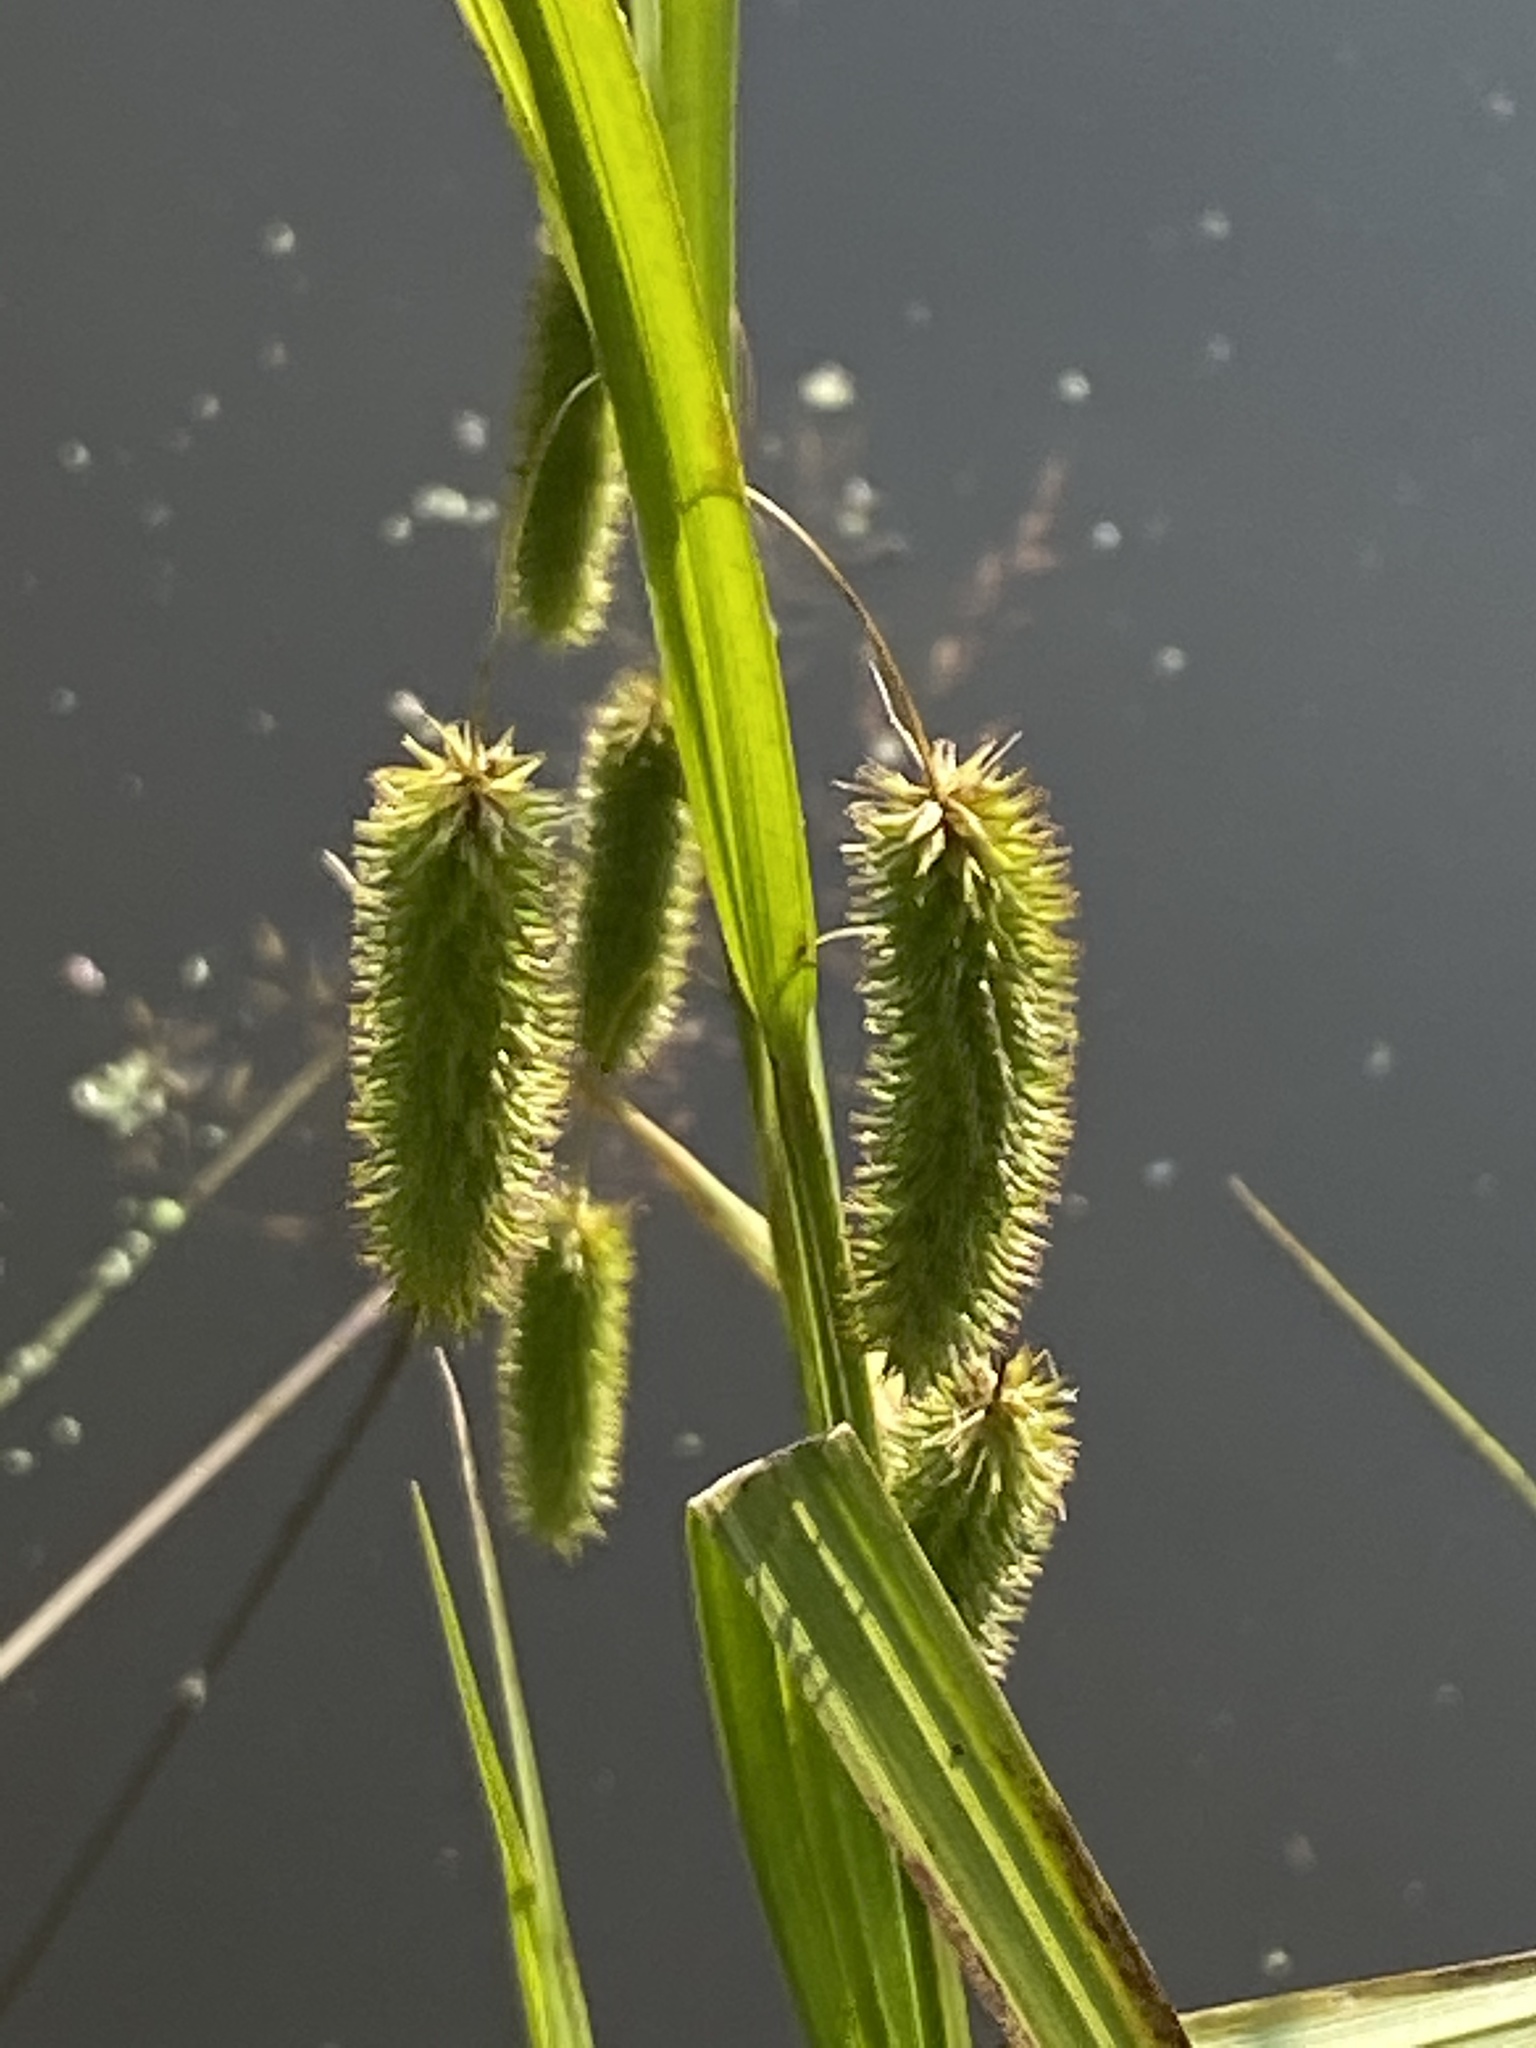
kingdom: Plantae
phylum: Tracheophyta
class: Liliopsida
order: Poales
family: Cyperaceae
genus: Carex
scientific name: Carex pseudocyperus
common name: Cyperus sedge
